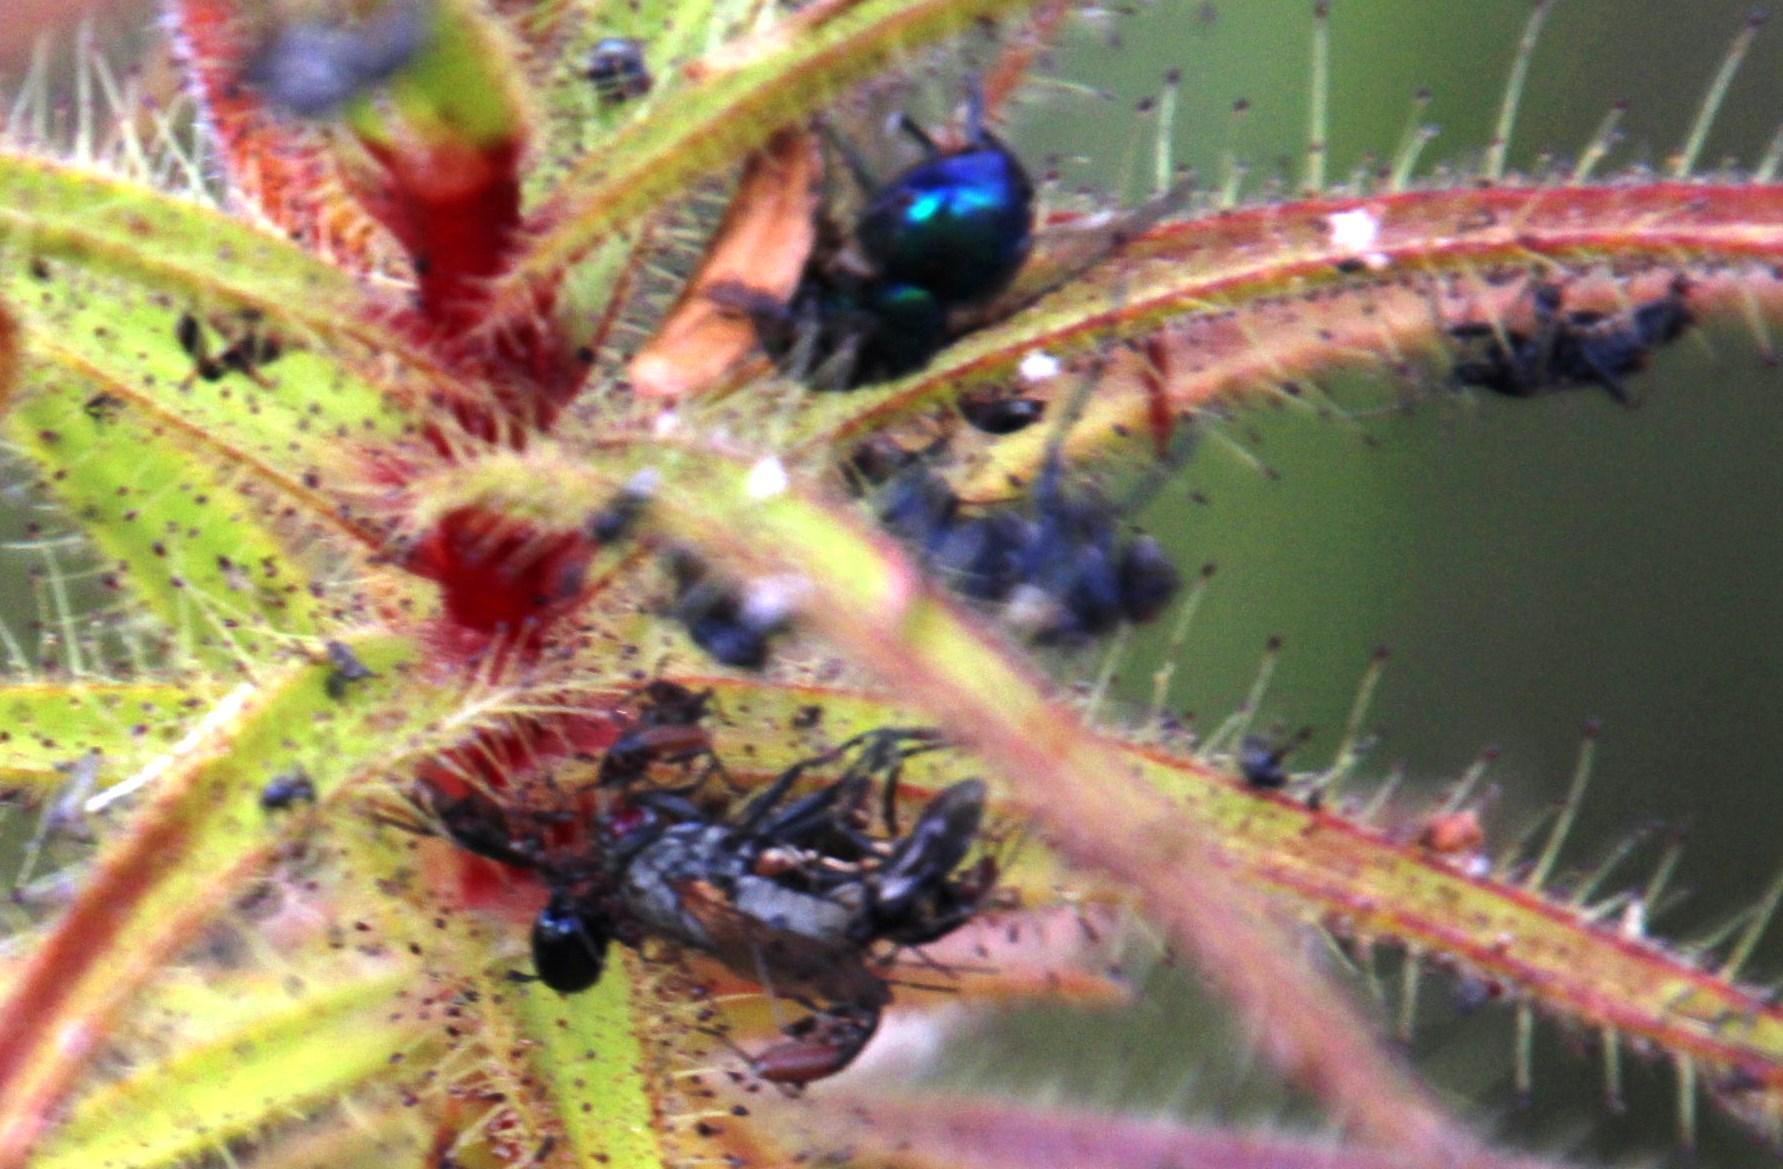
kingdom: Animalia
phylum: Arthropoda
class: Insecta
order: Hemiptera
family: Miridae
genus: Pameridea
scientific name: Pameridea roridulae
